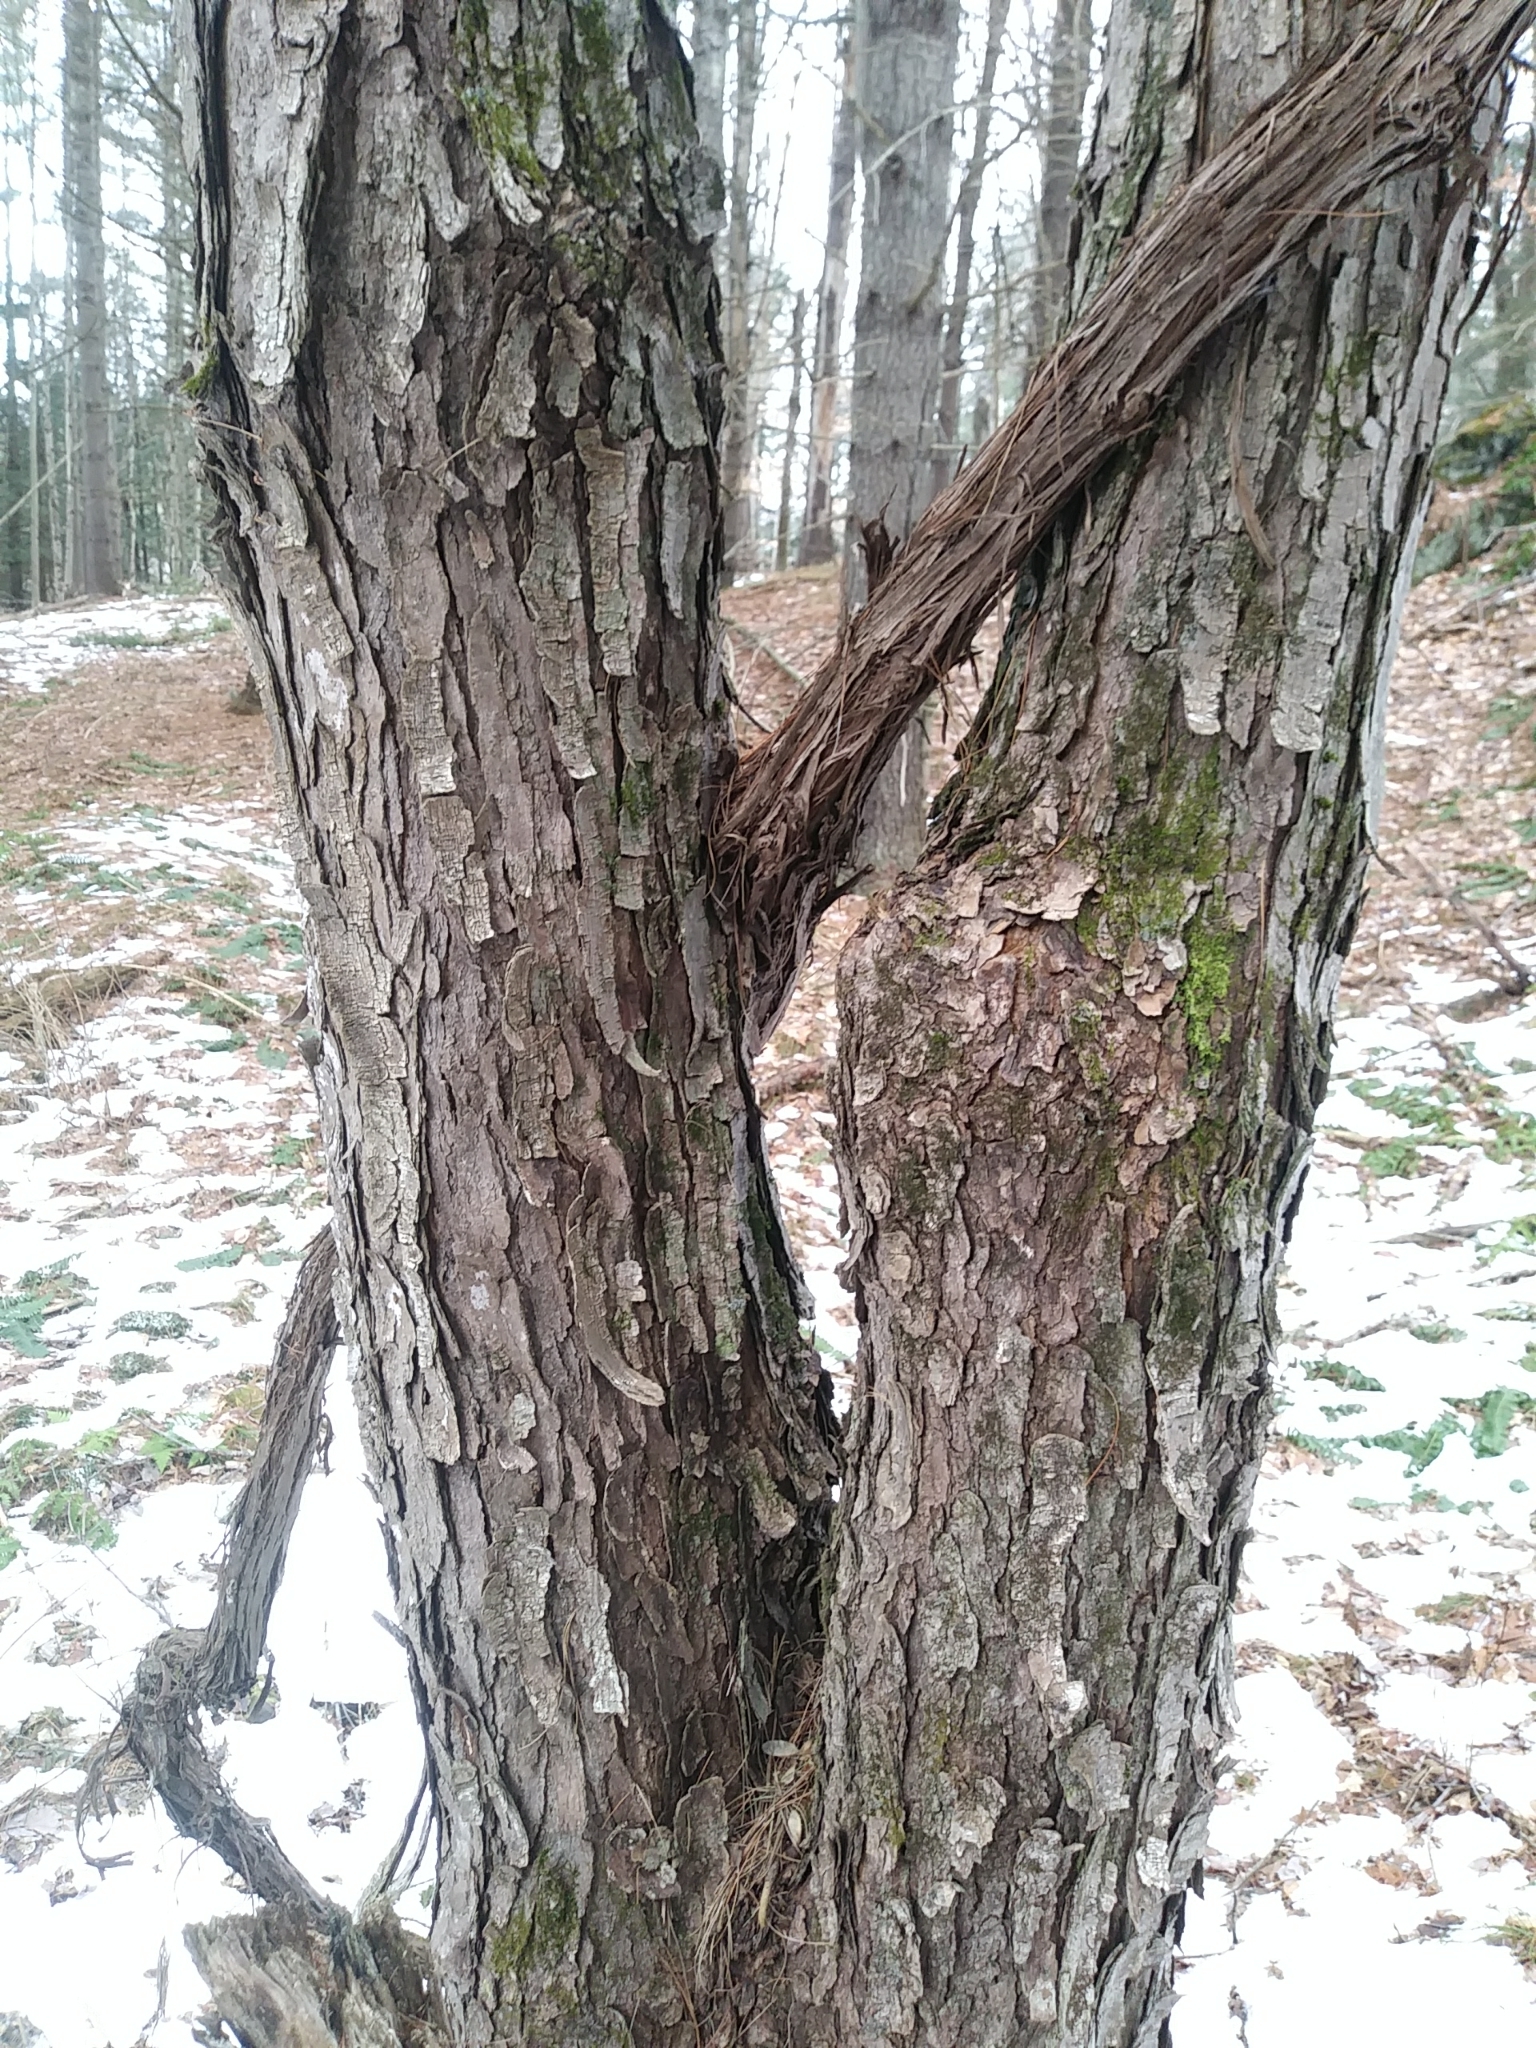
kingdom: Plantae
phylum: Tracheophyta
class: Magnoliopsida
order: Sapindales
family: Sapindaceae
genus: Acer
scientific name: Acer rubrum
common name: Red maple
